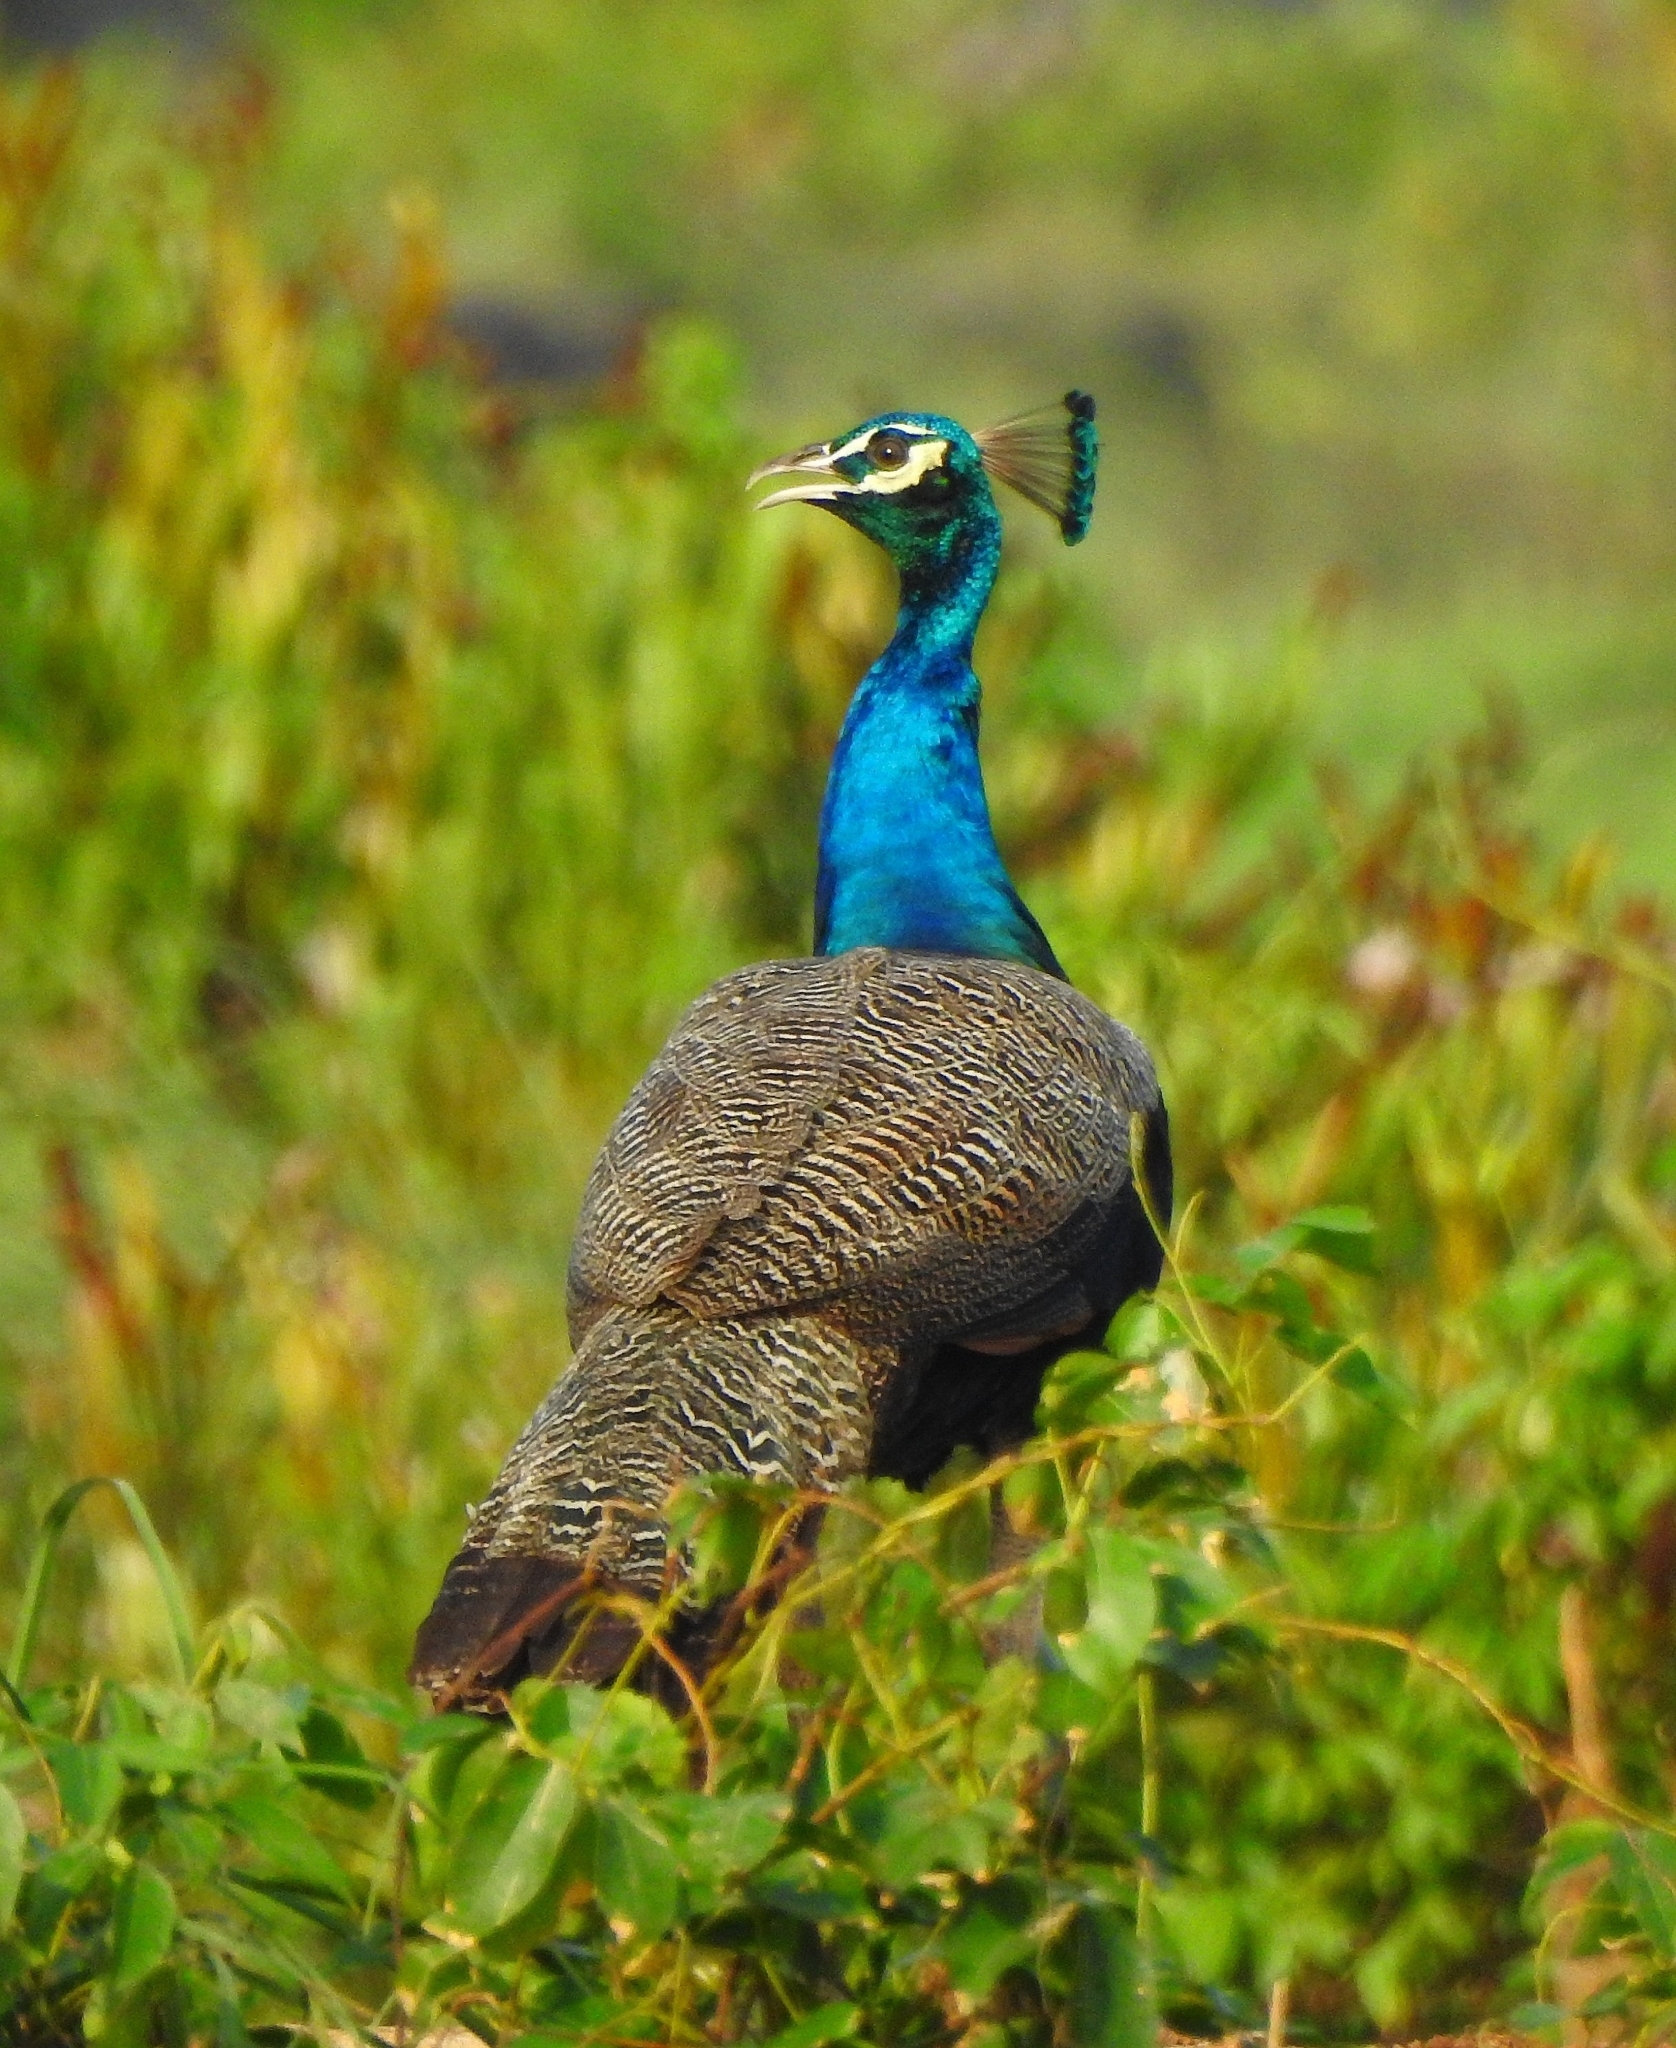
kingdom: Animalia
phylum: Chordata
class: Aves
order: Galliformes
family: Phasianidae
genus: Pavo
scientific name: Pavo cristatus
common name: Indian peafowl
